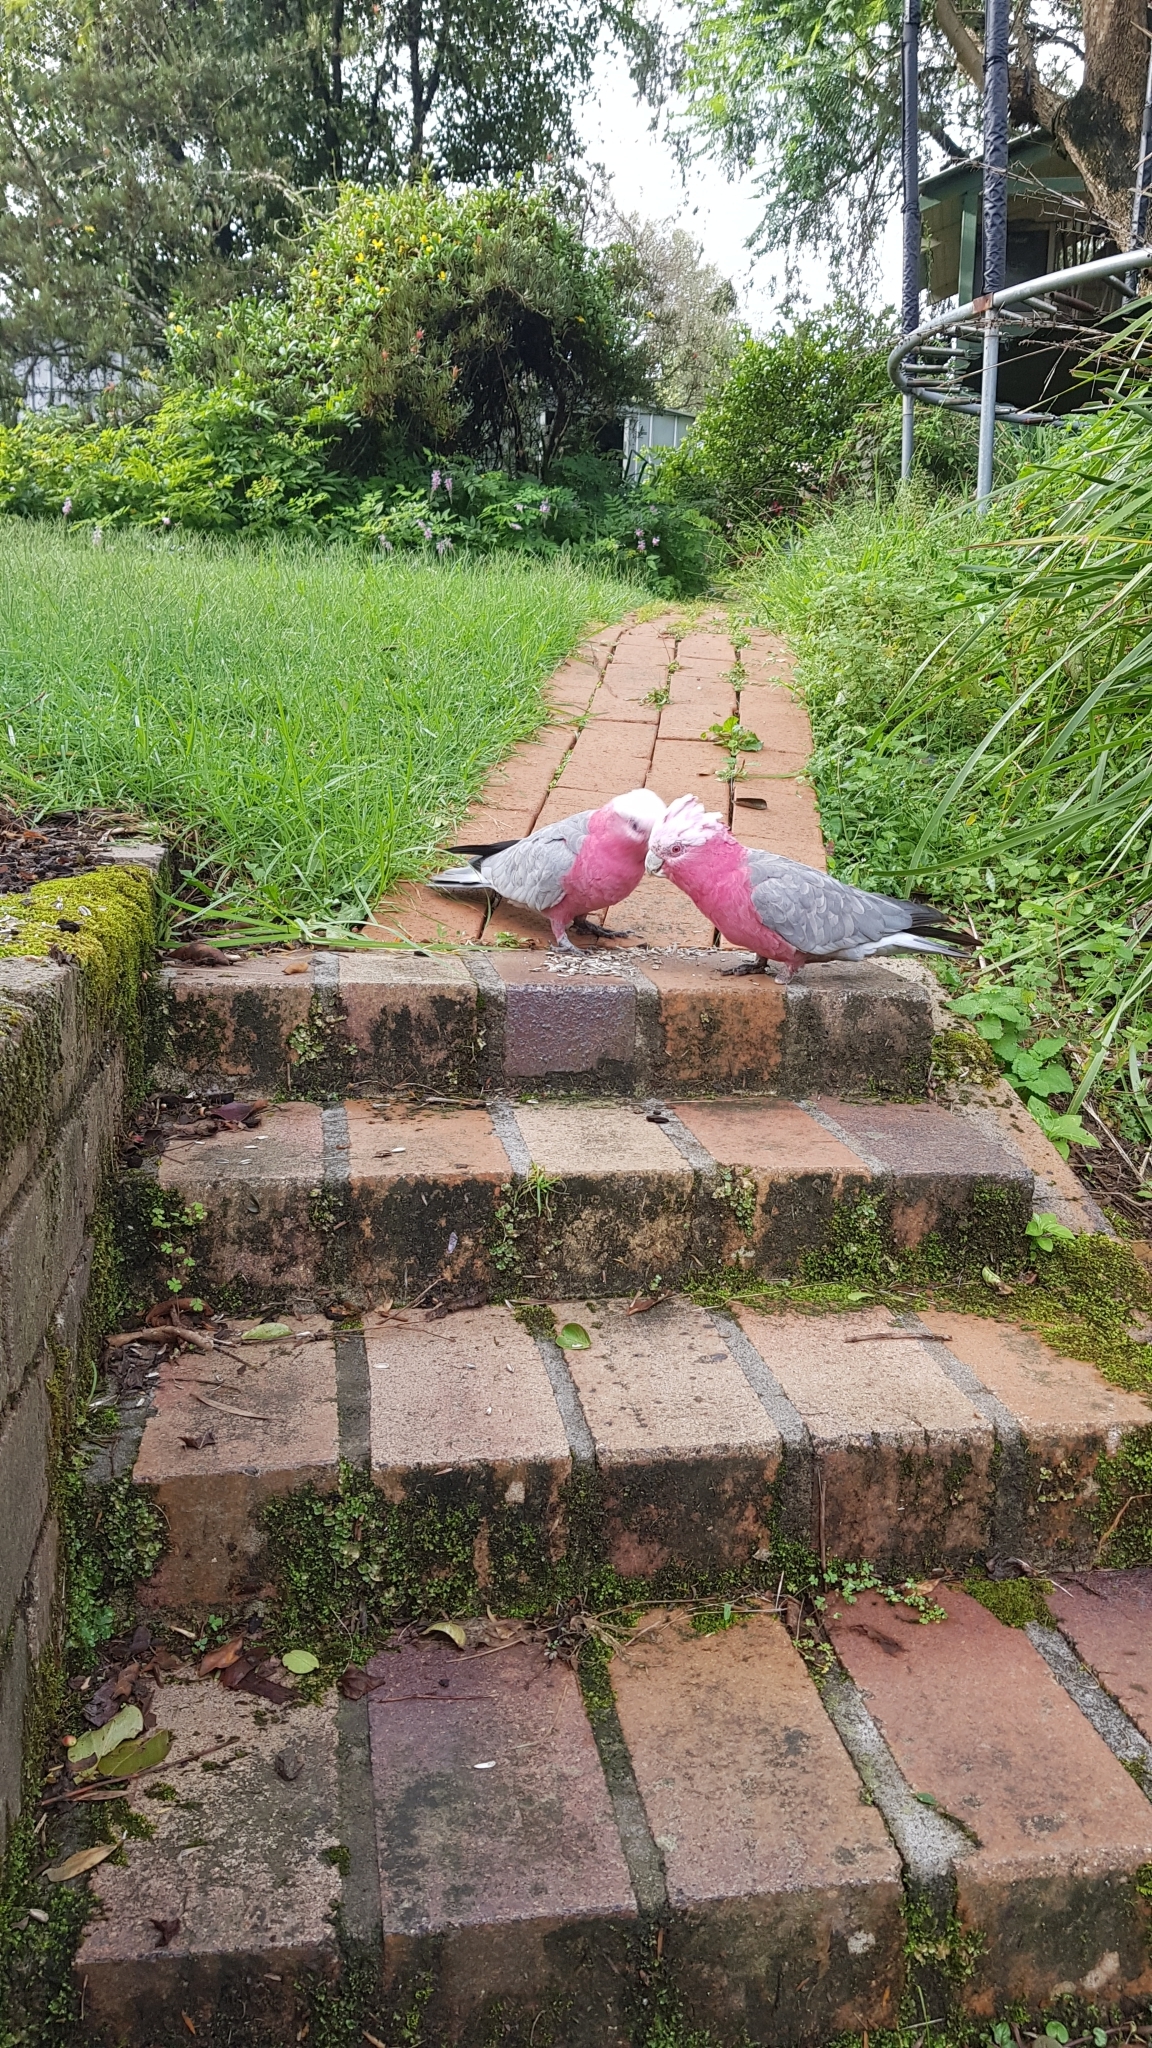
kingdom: Animalia
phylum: Chordata
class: Aves
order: Psittaciformes
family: Psittacidae
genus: Eolophus
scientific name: Eolophus roseicapilla
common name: Galah
